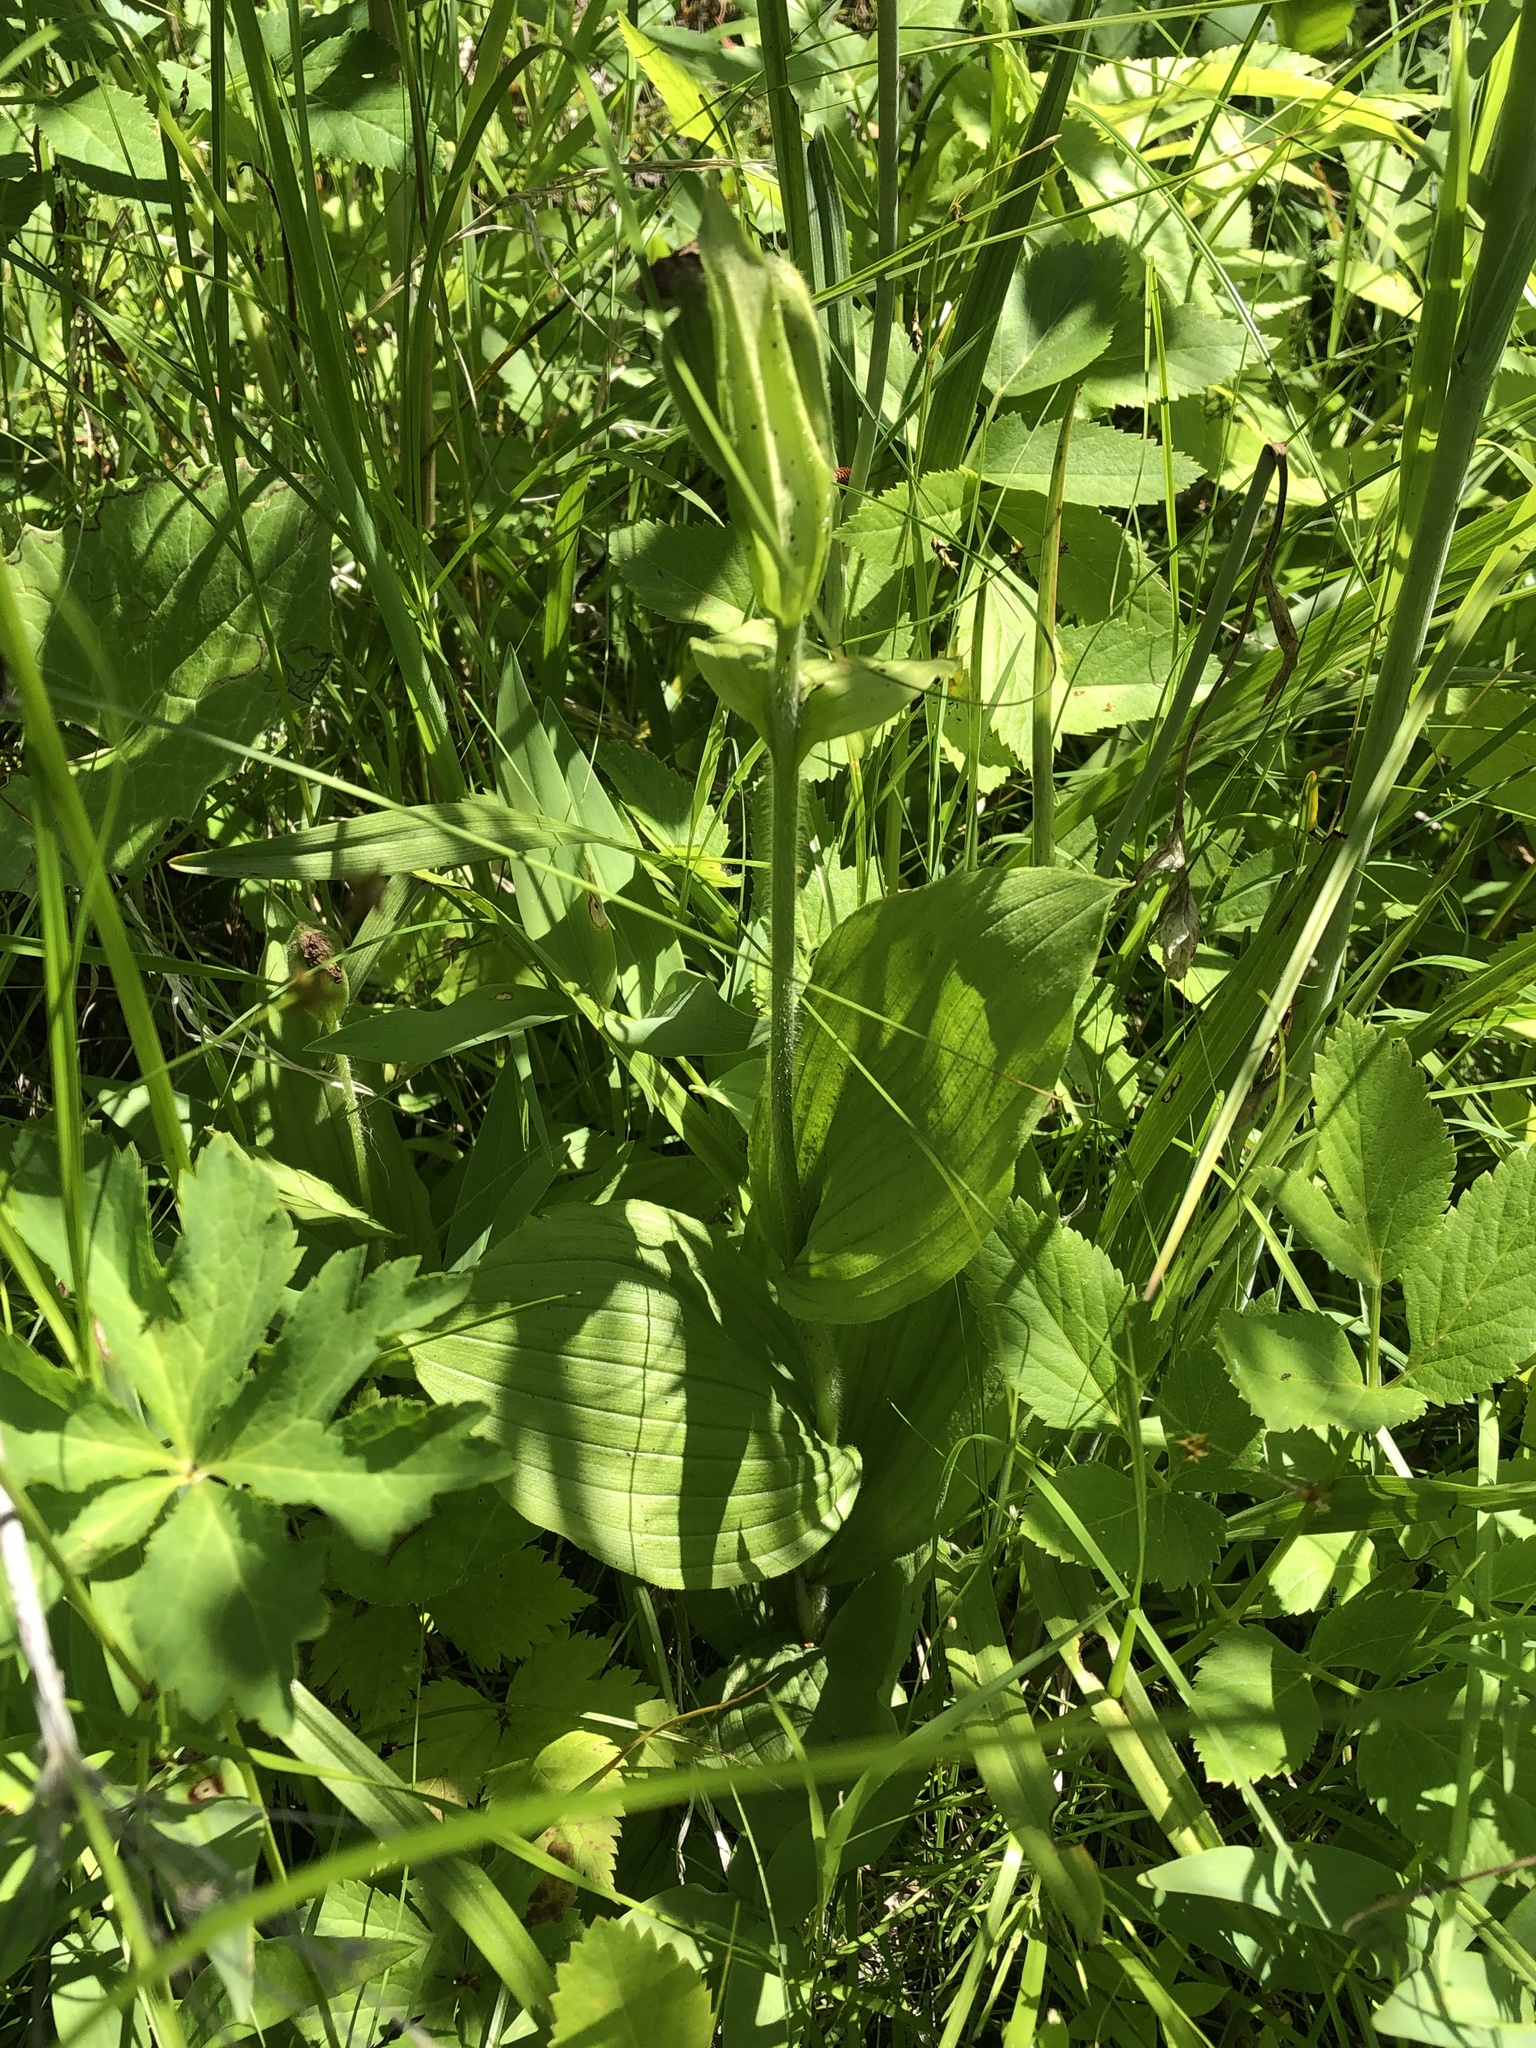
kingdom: Plantae
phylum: Tracheophyta
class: Liliopsida
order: Asparagales
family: Orchidaceae
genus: Cypripedium
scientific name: Cypripedium passerinum
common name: Sparrow's-egg lady's-slipper
